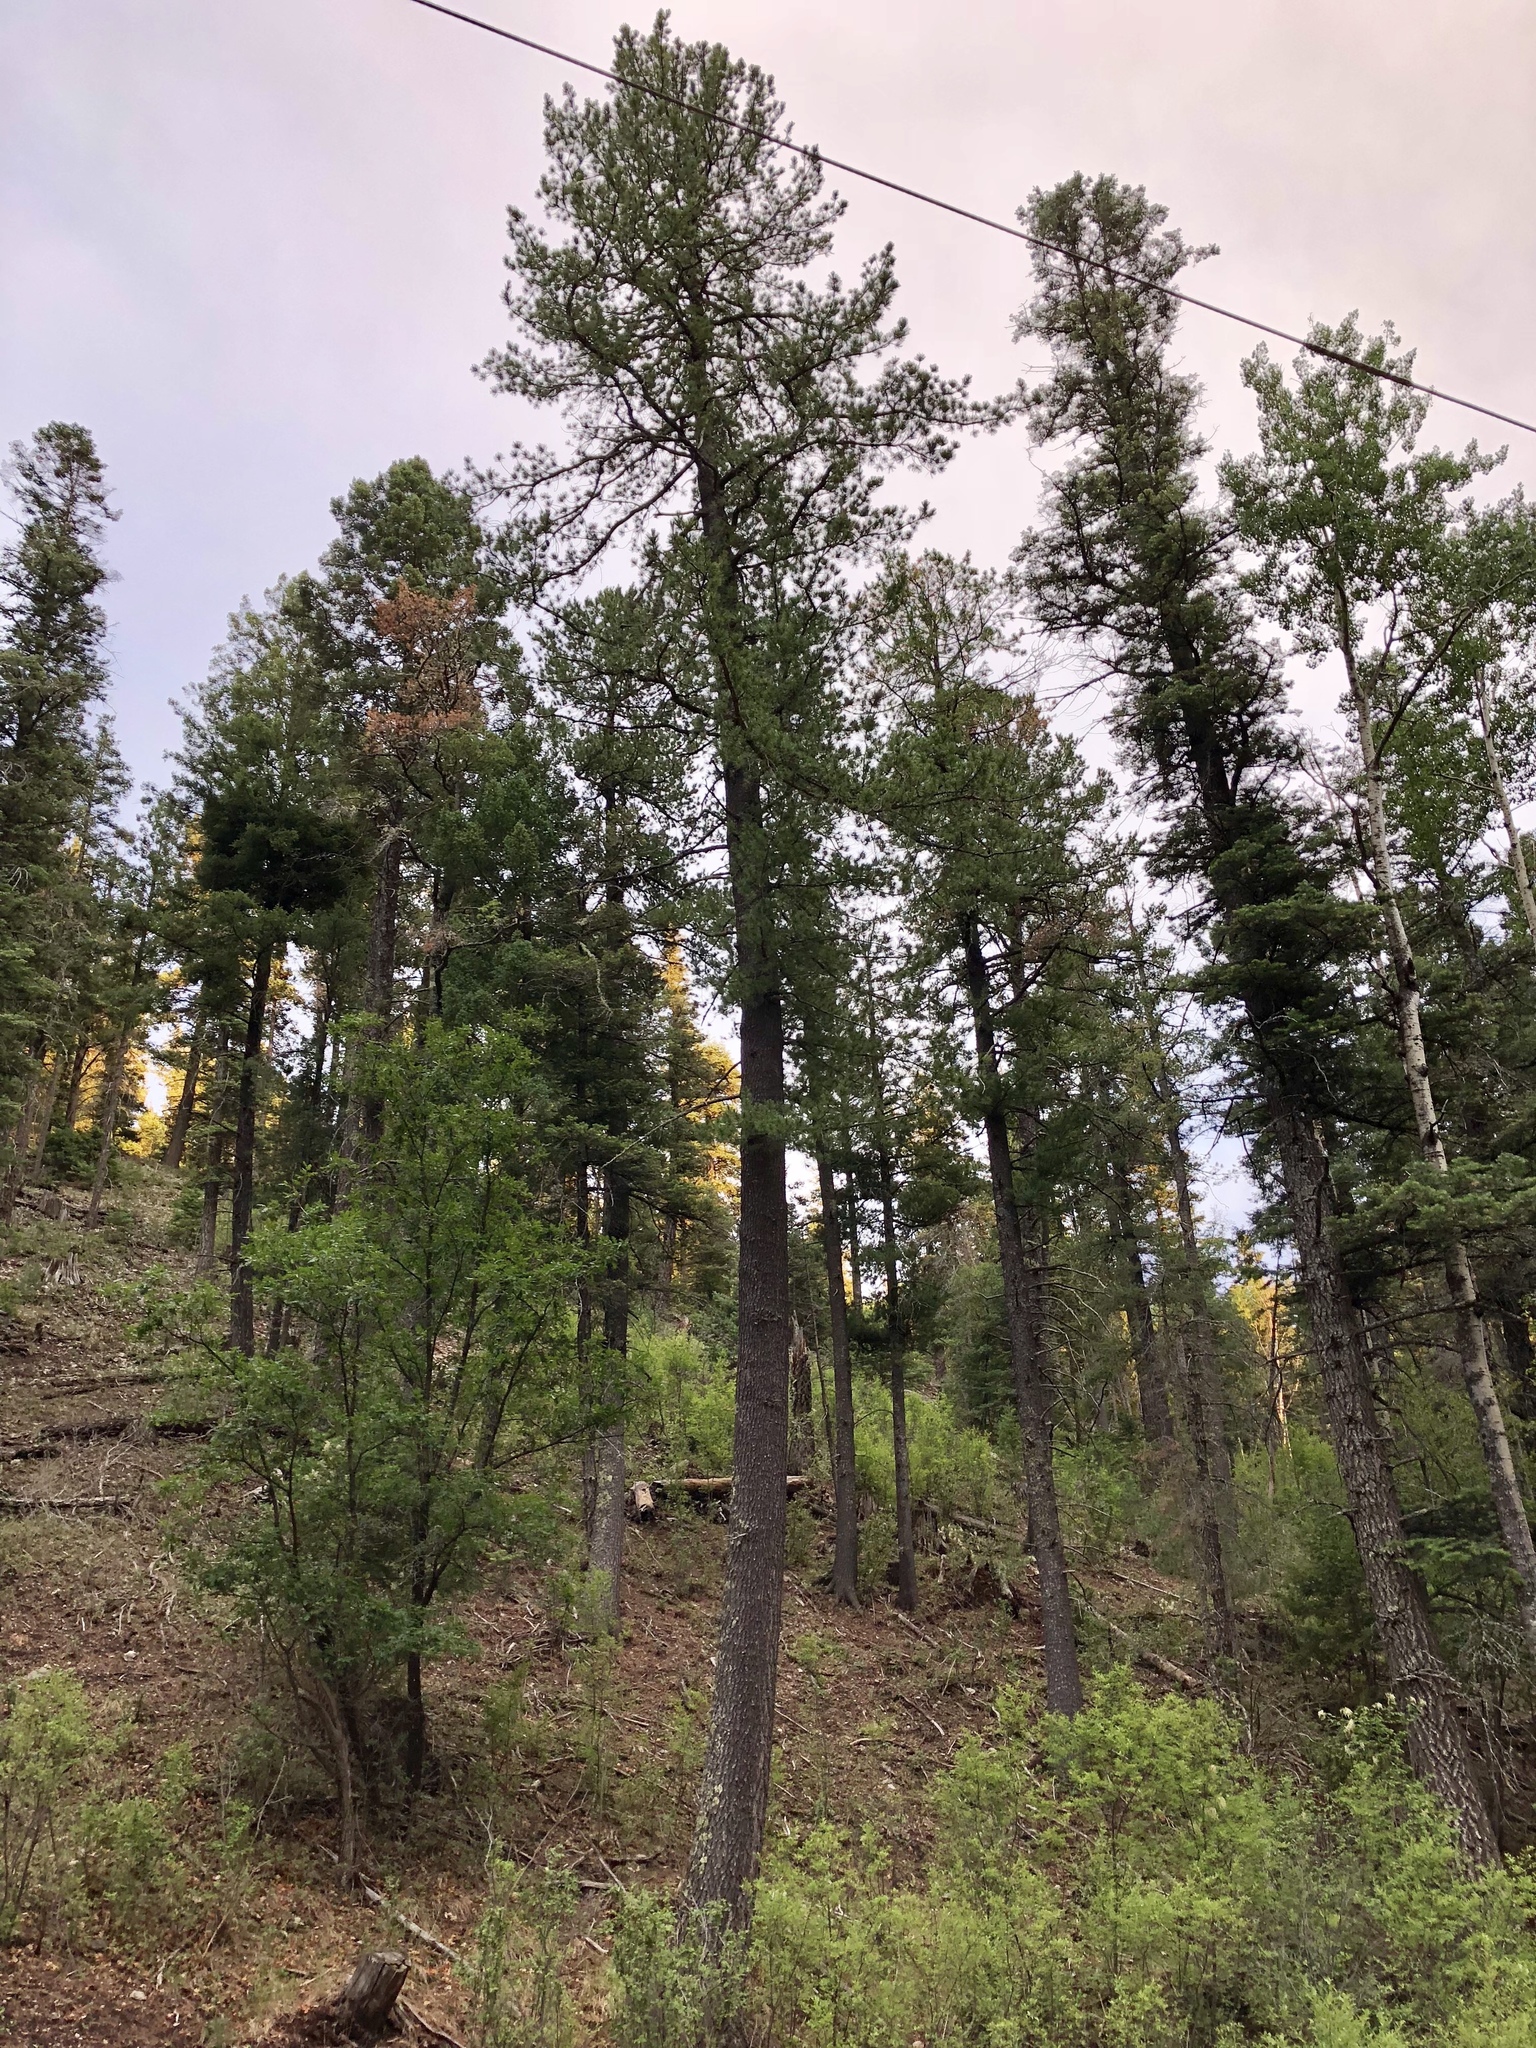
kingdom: Plantae
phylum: Tracheophyta
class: Pinopsida
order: Pinales
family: Pinaceae
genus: Pseudotsuga
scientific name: Pseudotsuga menziesii
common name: Douglas fir
